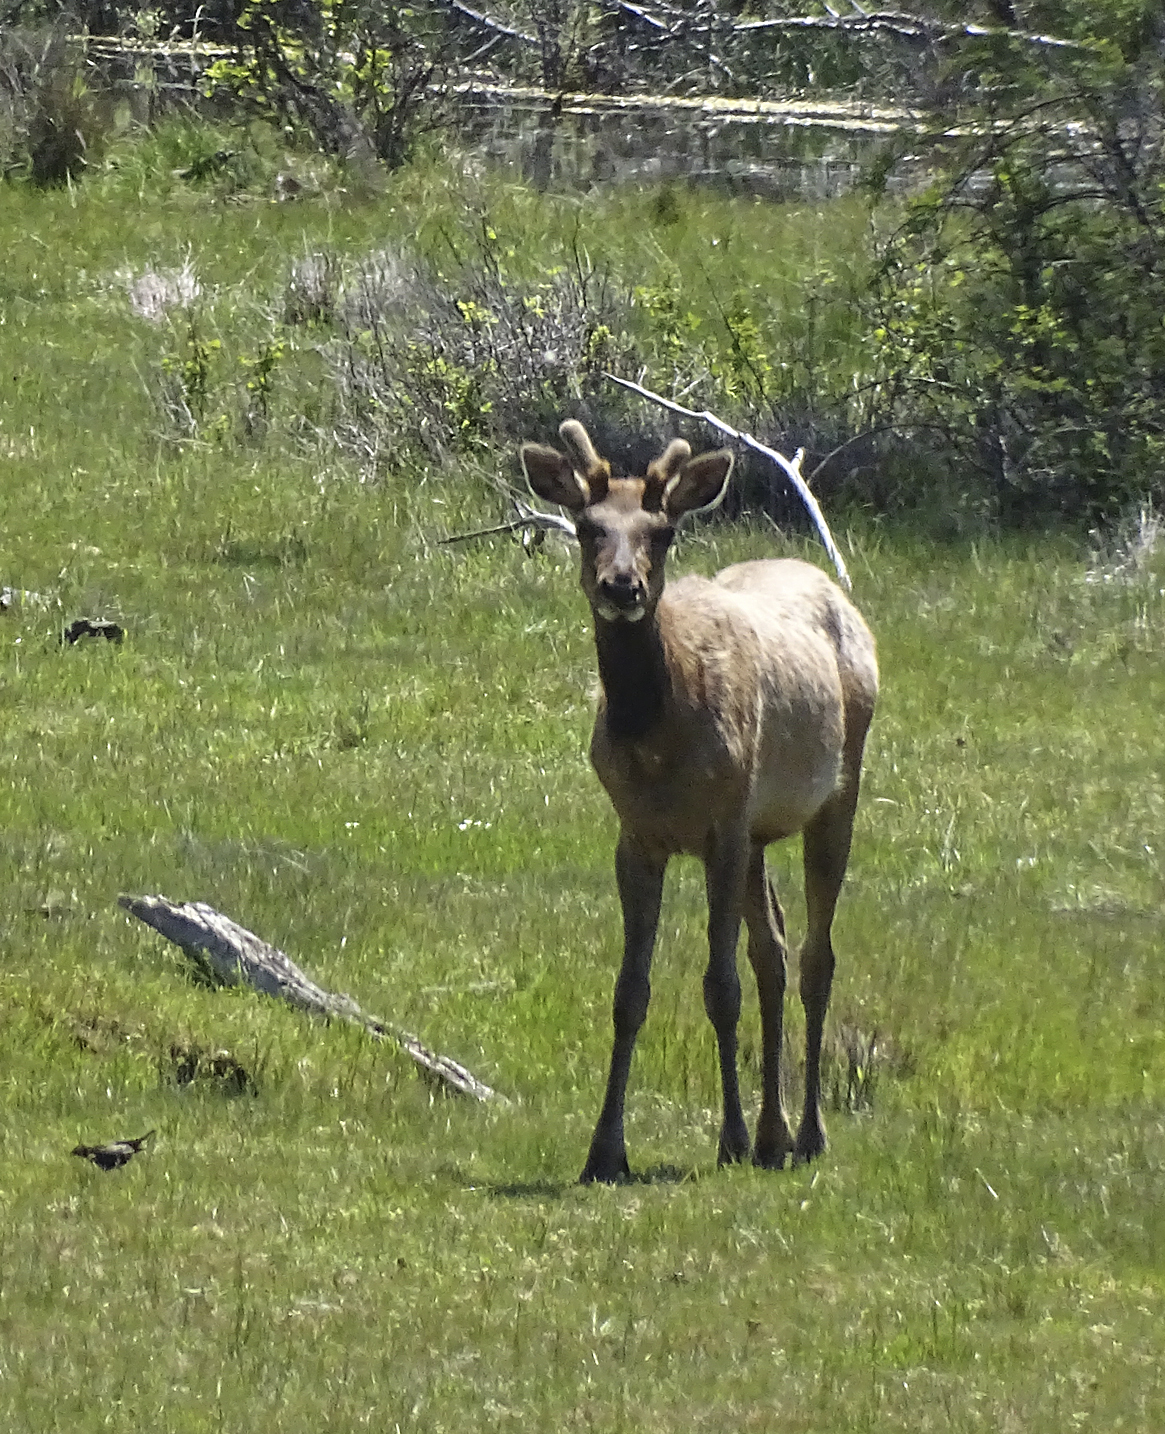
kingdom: Animalia
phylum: Chordata
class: Mammalia
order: Artiodactyla
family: Cervidae
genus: Cervus
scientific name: Cervus elaphus
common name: Red deer
